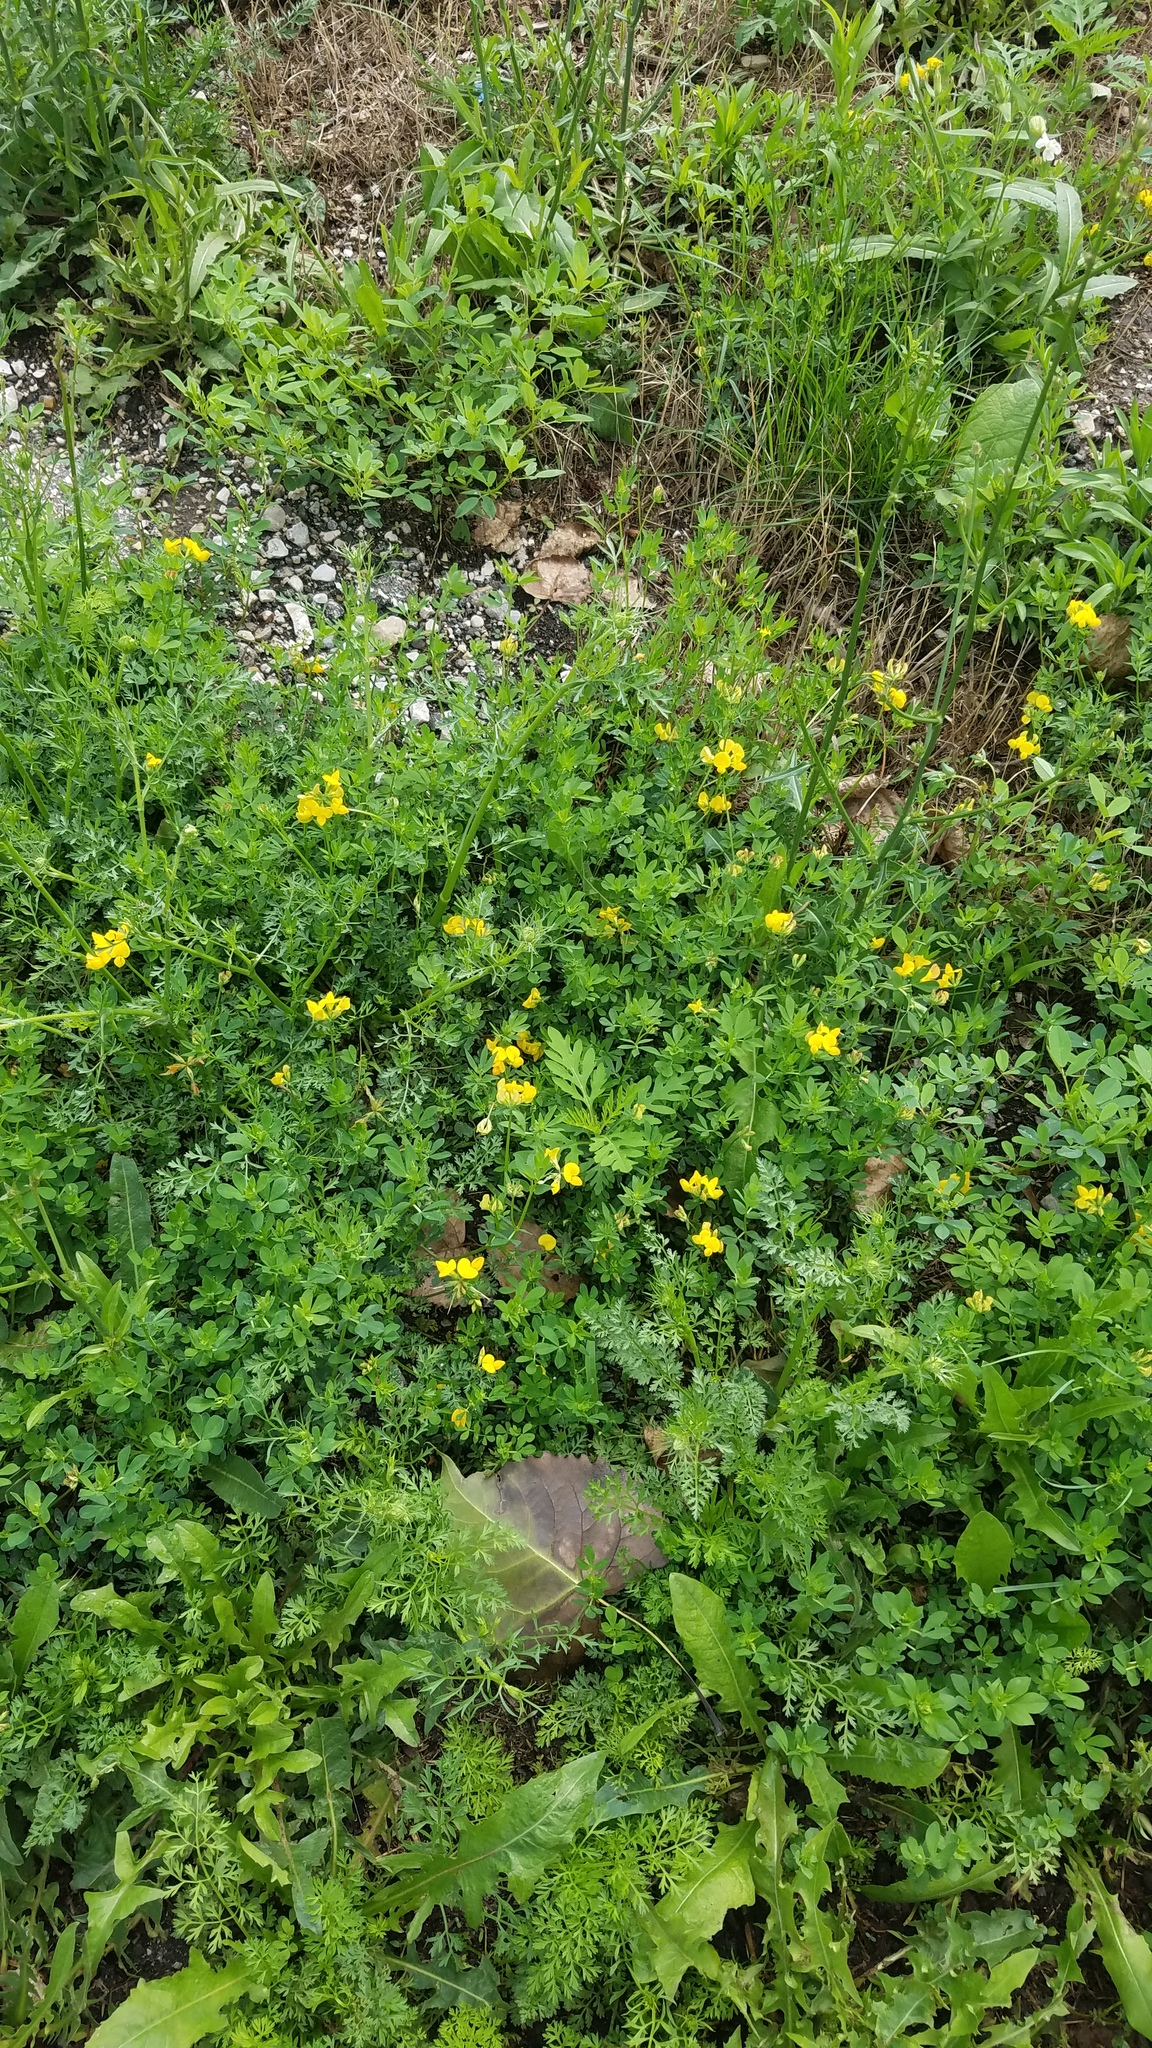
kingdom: Plantae
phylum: Tracheophyta
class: Magnoliopsida
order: Fabales
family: Fabaceae
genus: Lotus
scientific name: Lotus corniculatus
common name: Common bird's-foot-trefoil
